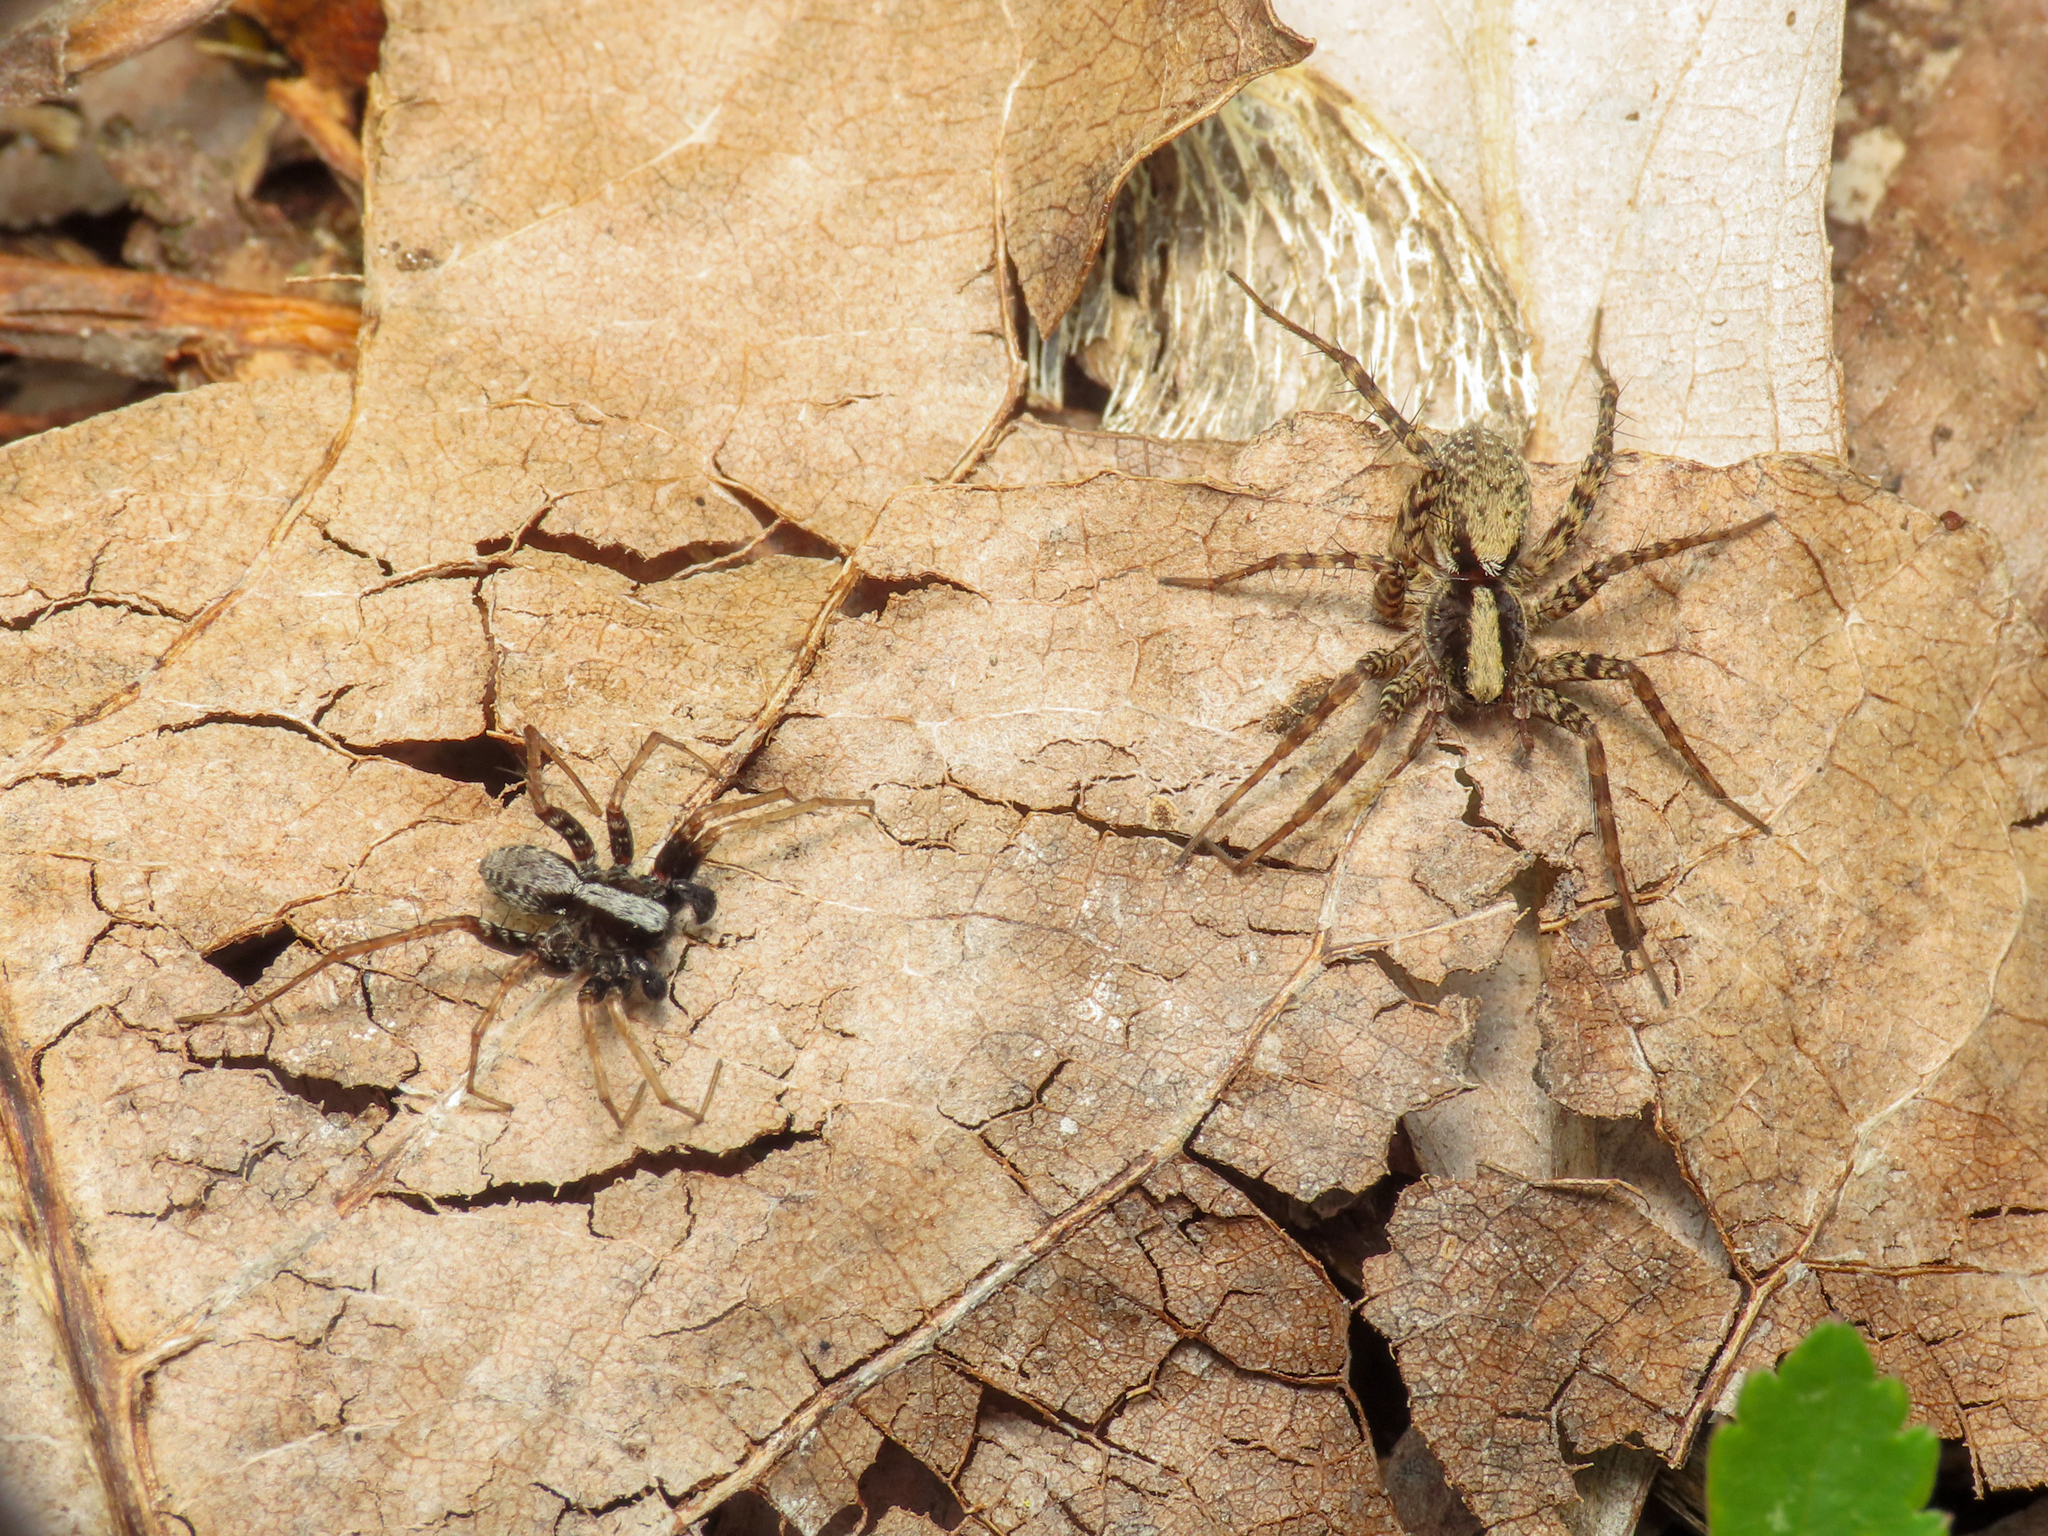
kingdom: Animalia
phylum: Arthropoda
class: Arachnida
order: Araneae
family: Lycosidae
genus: Pardosa
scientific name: Pardosa saltans
